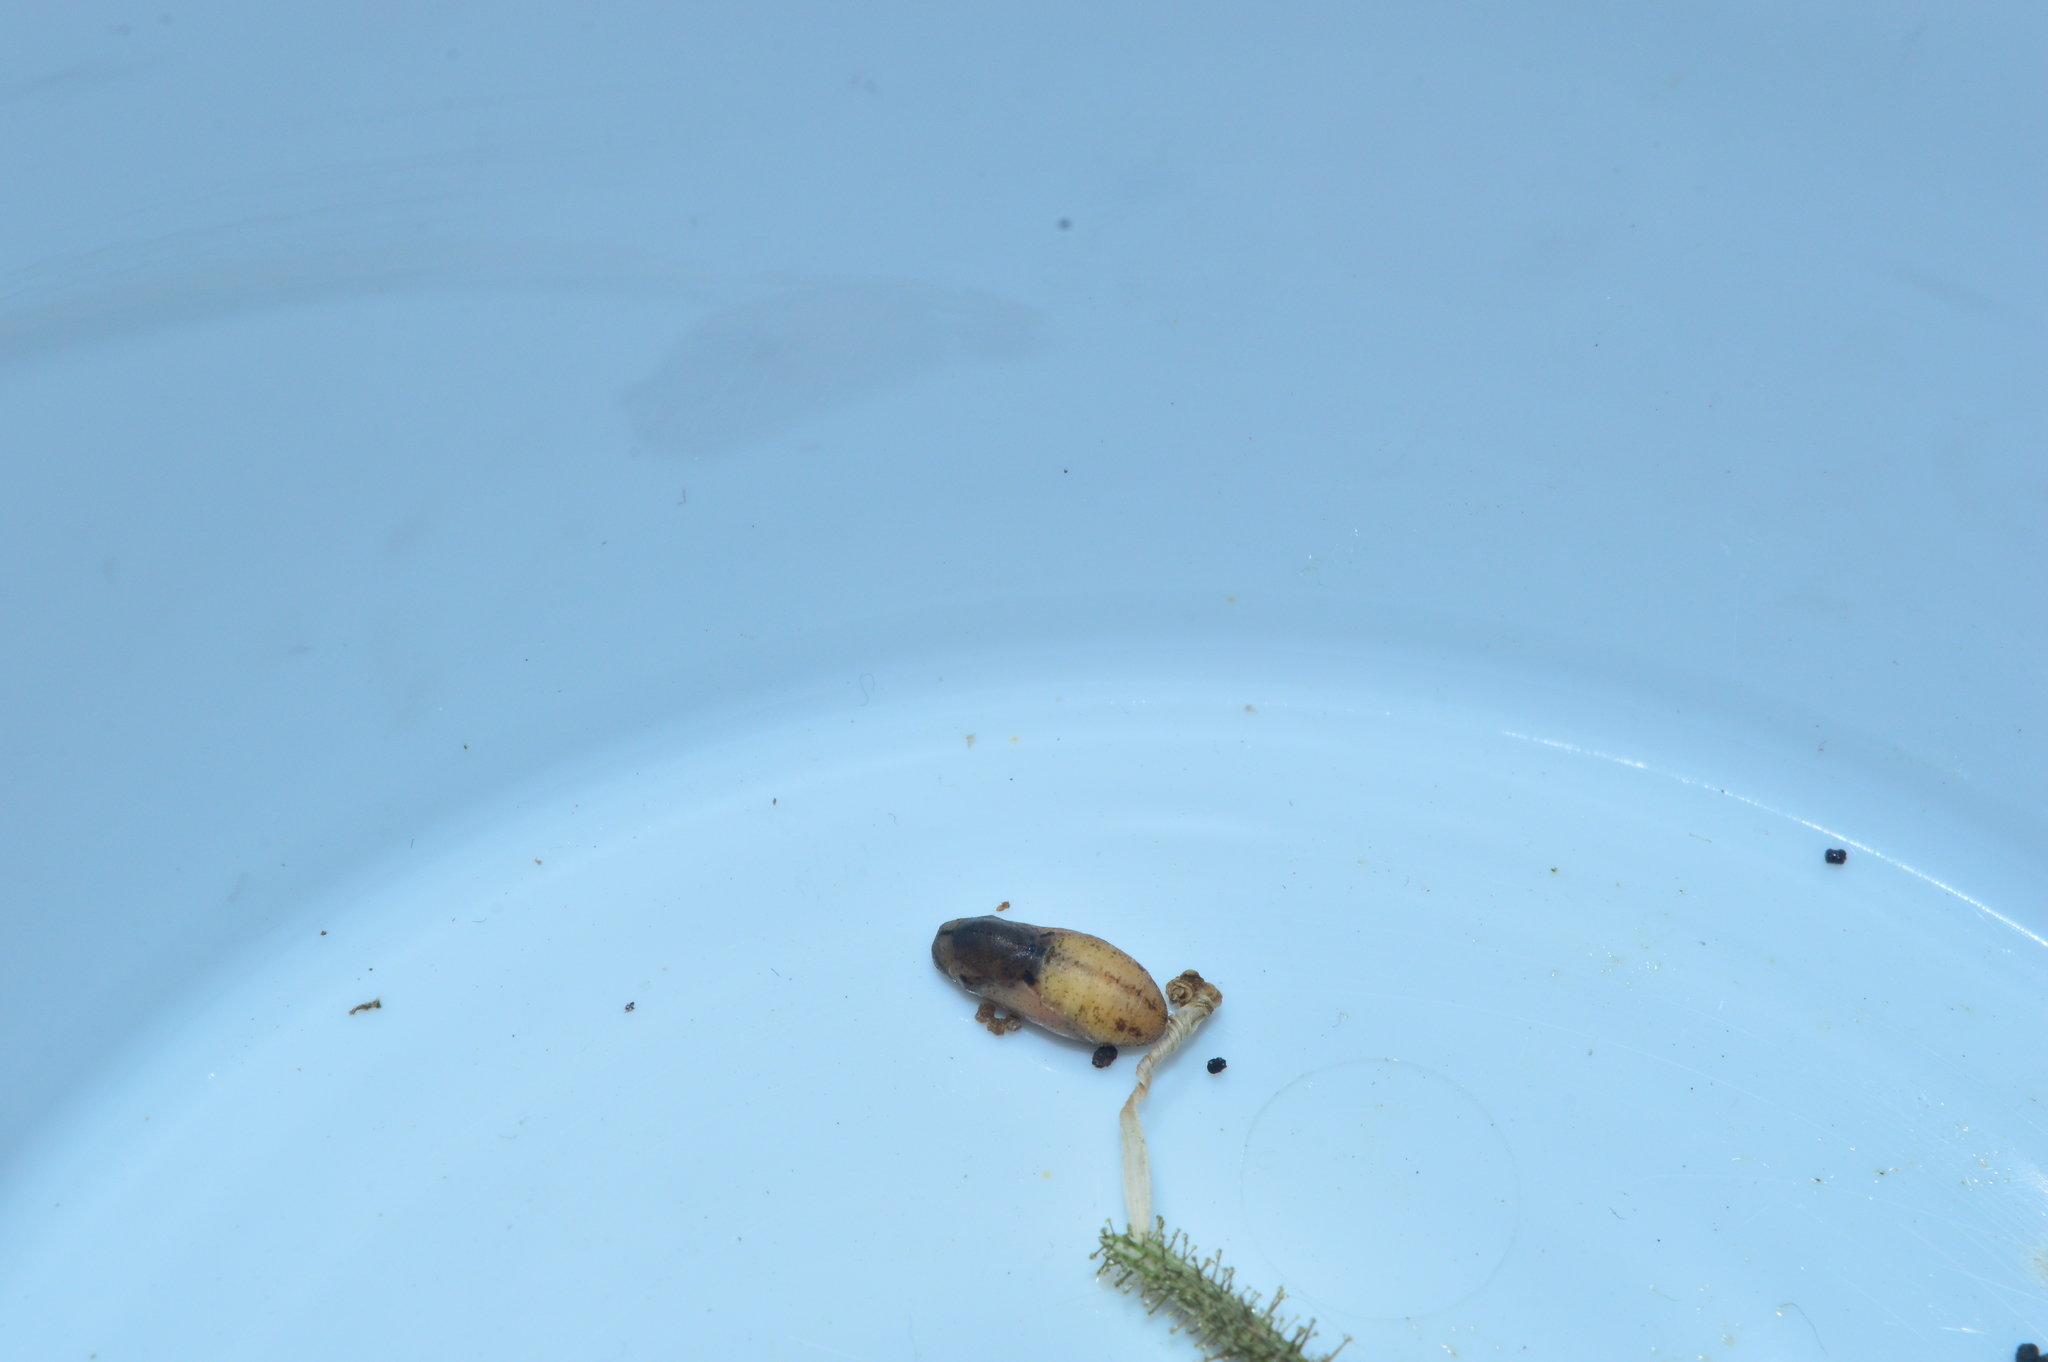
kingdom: Animalia
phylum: Arthropoda
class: Insecta
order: Lepidoptera
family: Lycaenidae
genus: Leptotes
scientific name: Leptotes plinius
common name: Zebra blue
